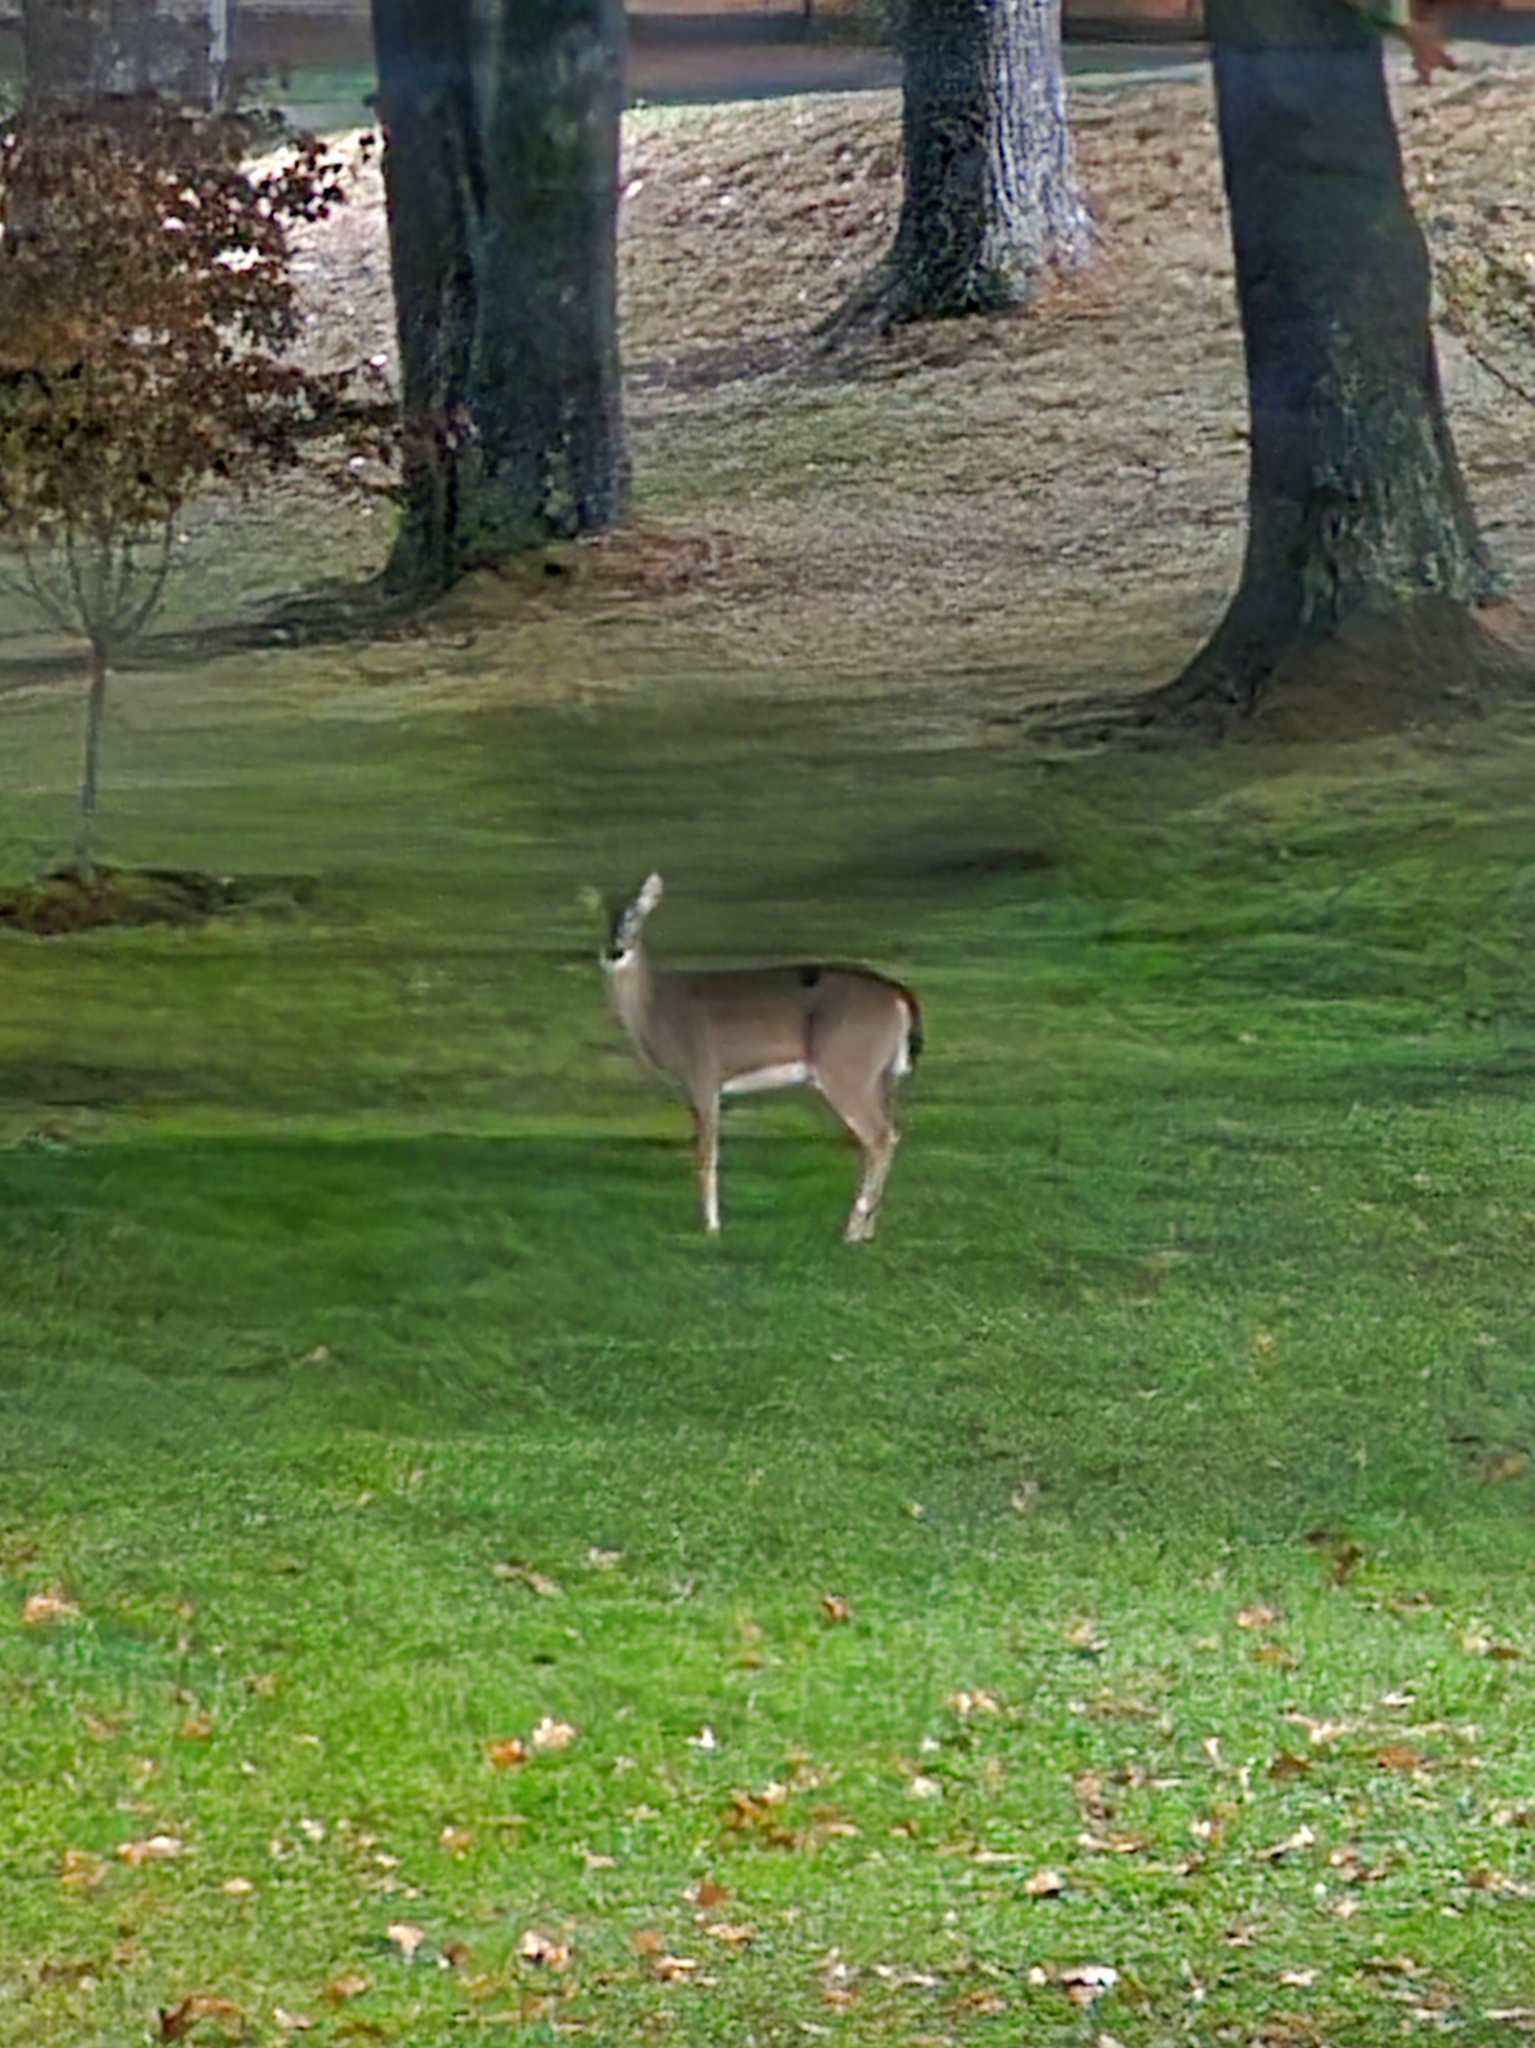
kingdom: Animalia
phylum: Chordata
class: Mammalia
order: Artiodactyla
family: Cervidae
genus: Odocoileus
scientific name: Odocoileus virginianus
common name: White-tailed deer
